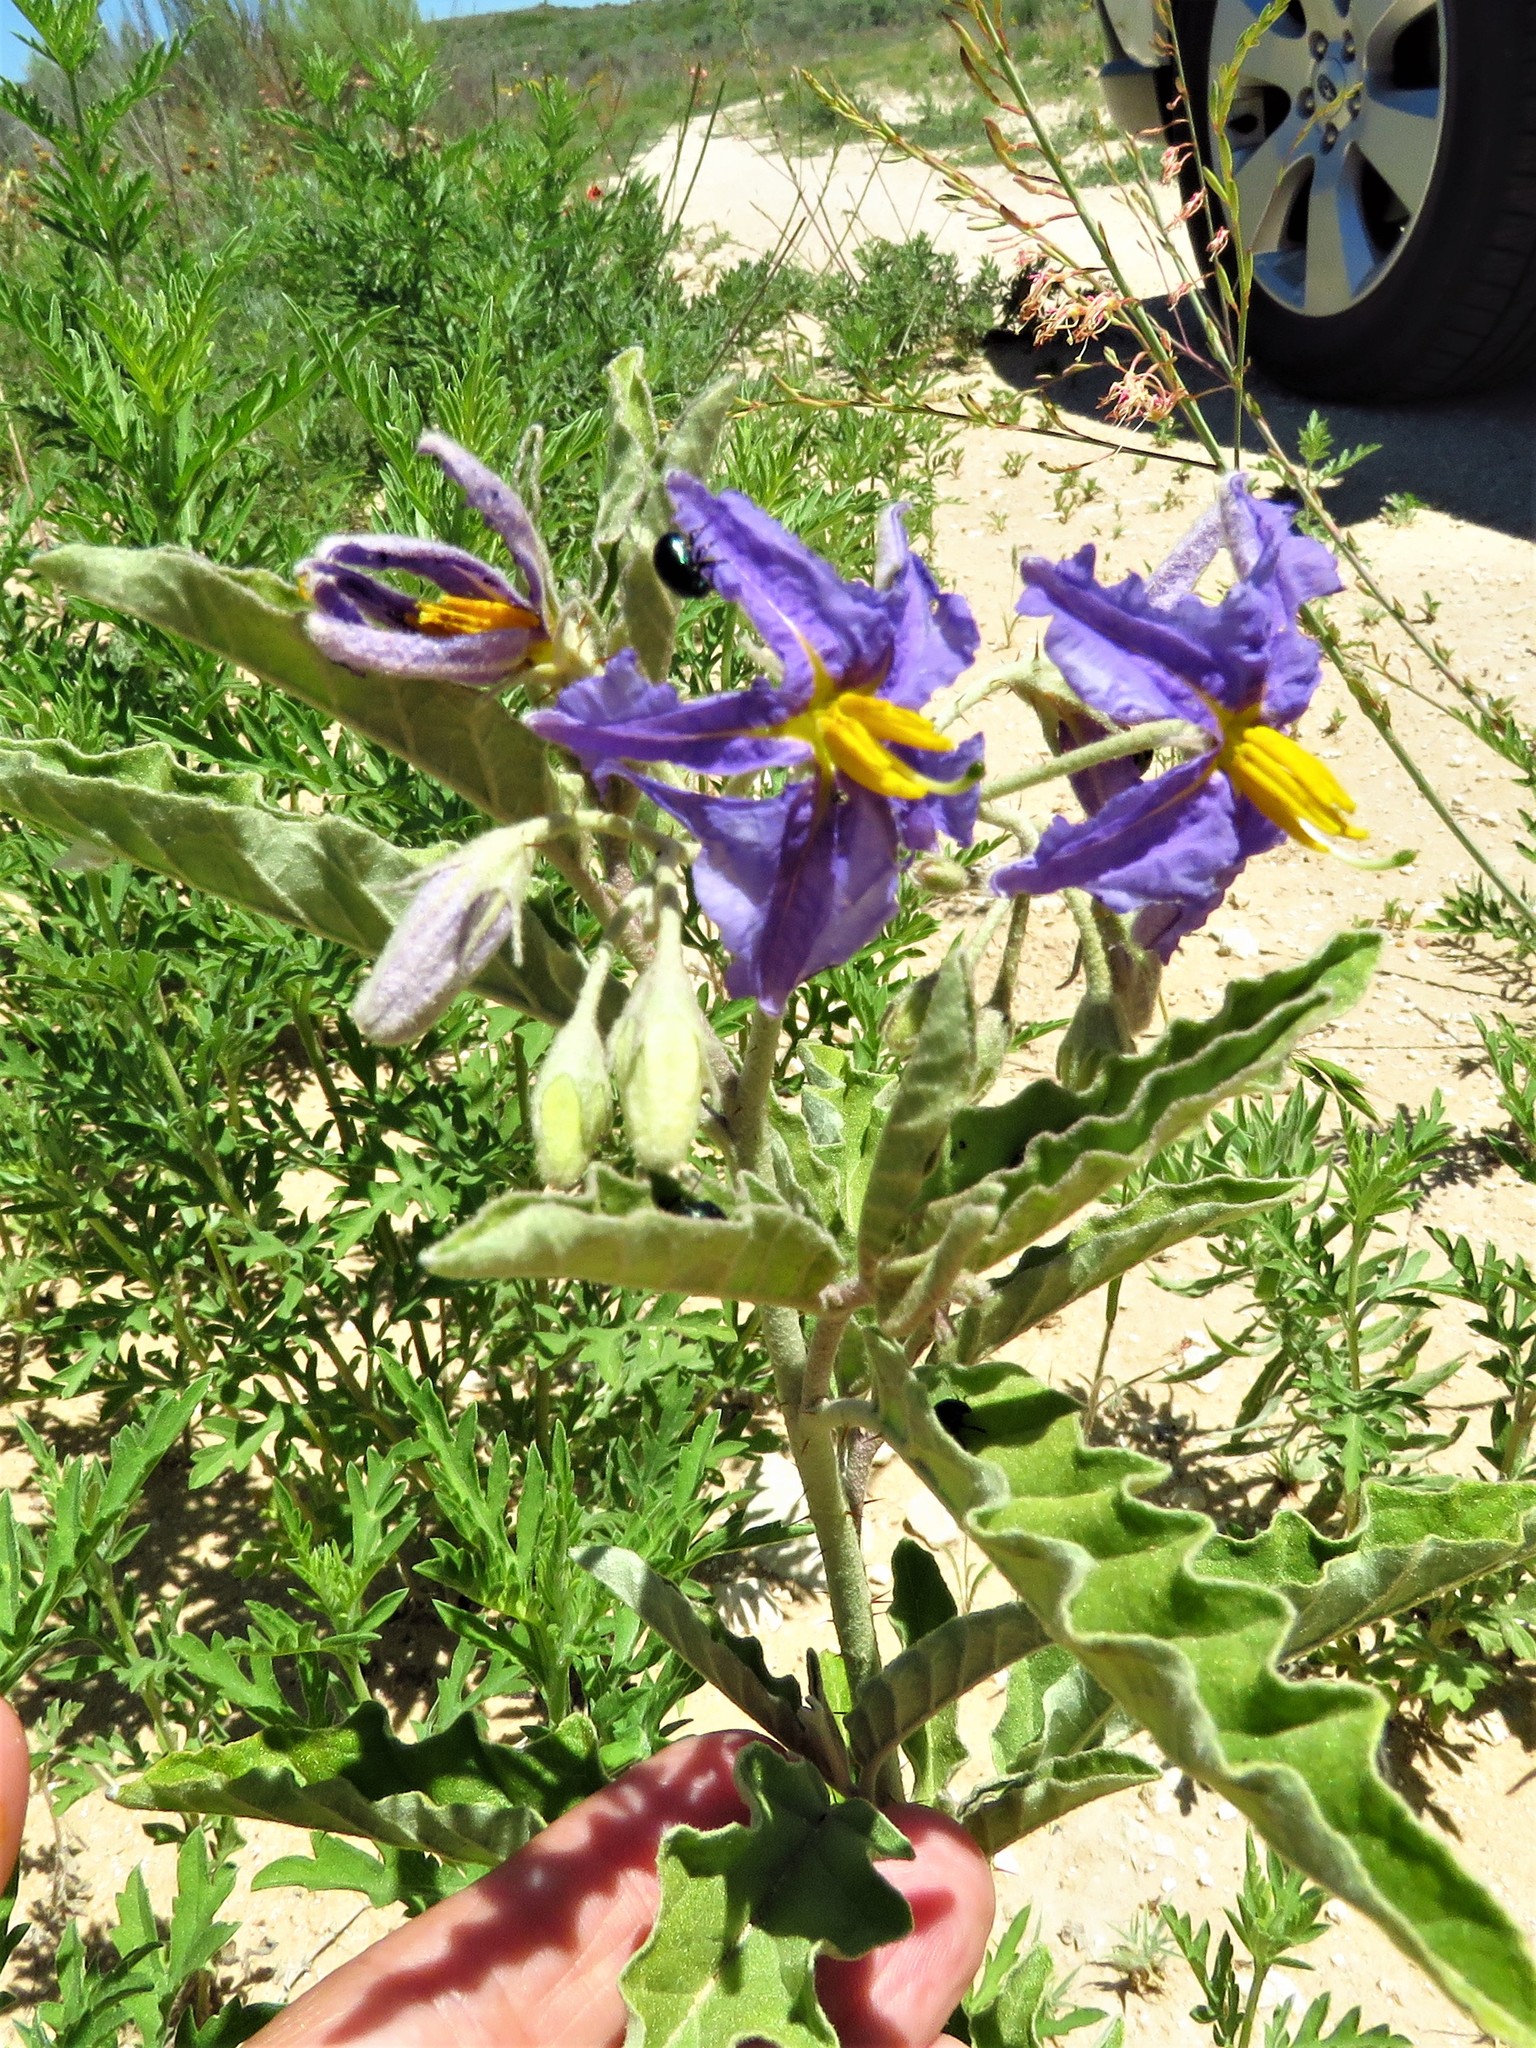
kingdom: Plantae
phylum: Tracheophyta
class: Magnoliopsida
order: Solanales
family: Solanaceae
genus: Solanum
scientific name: Solanum elaeagnifolium
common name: Silverleaf nightshade
